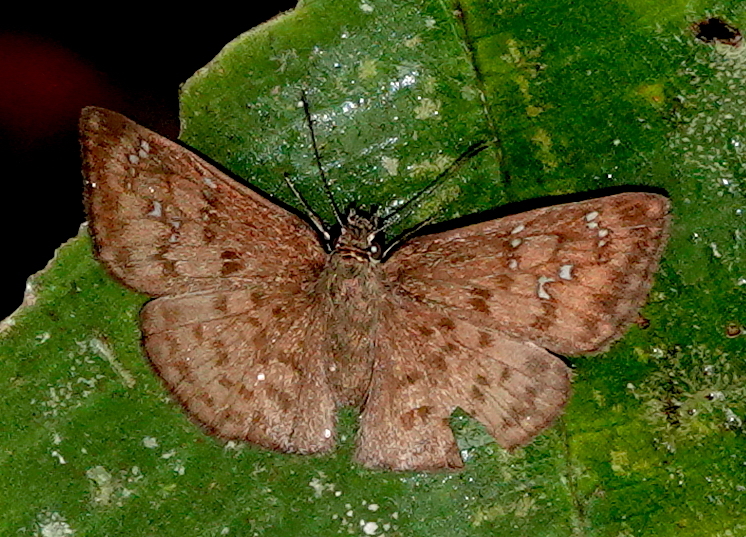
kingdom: Animalia
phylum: Arthropoda
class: Insecta
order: Lepidoptera
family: Hesperiidae
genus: Canesia
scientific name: Canesia
